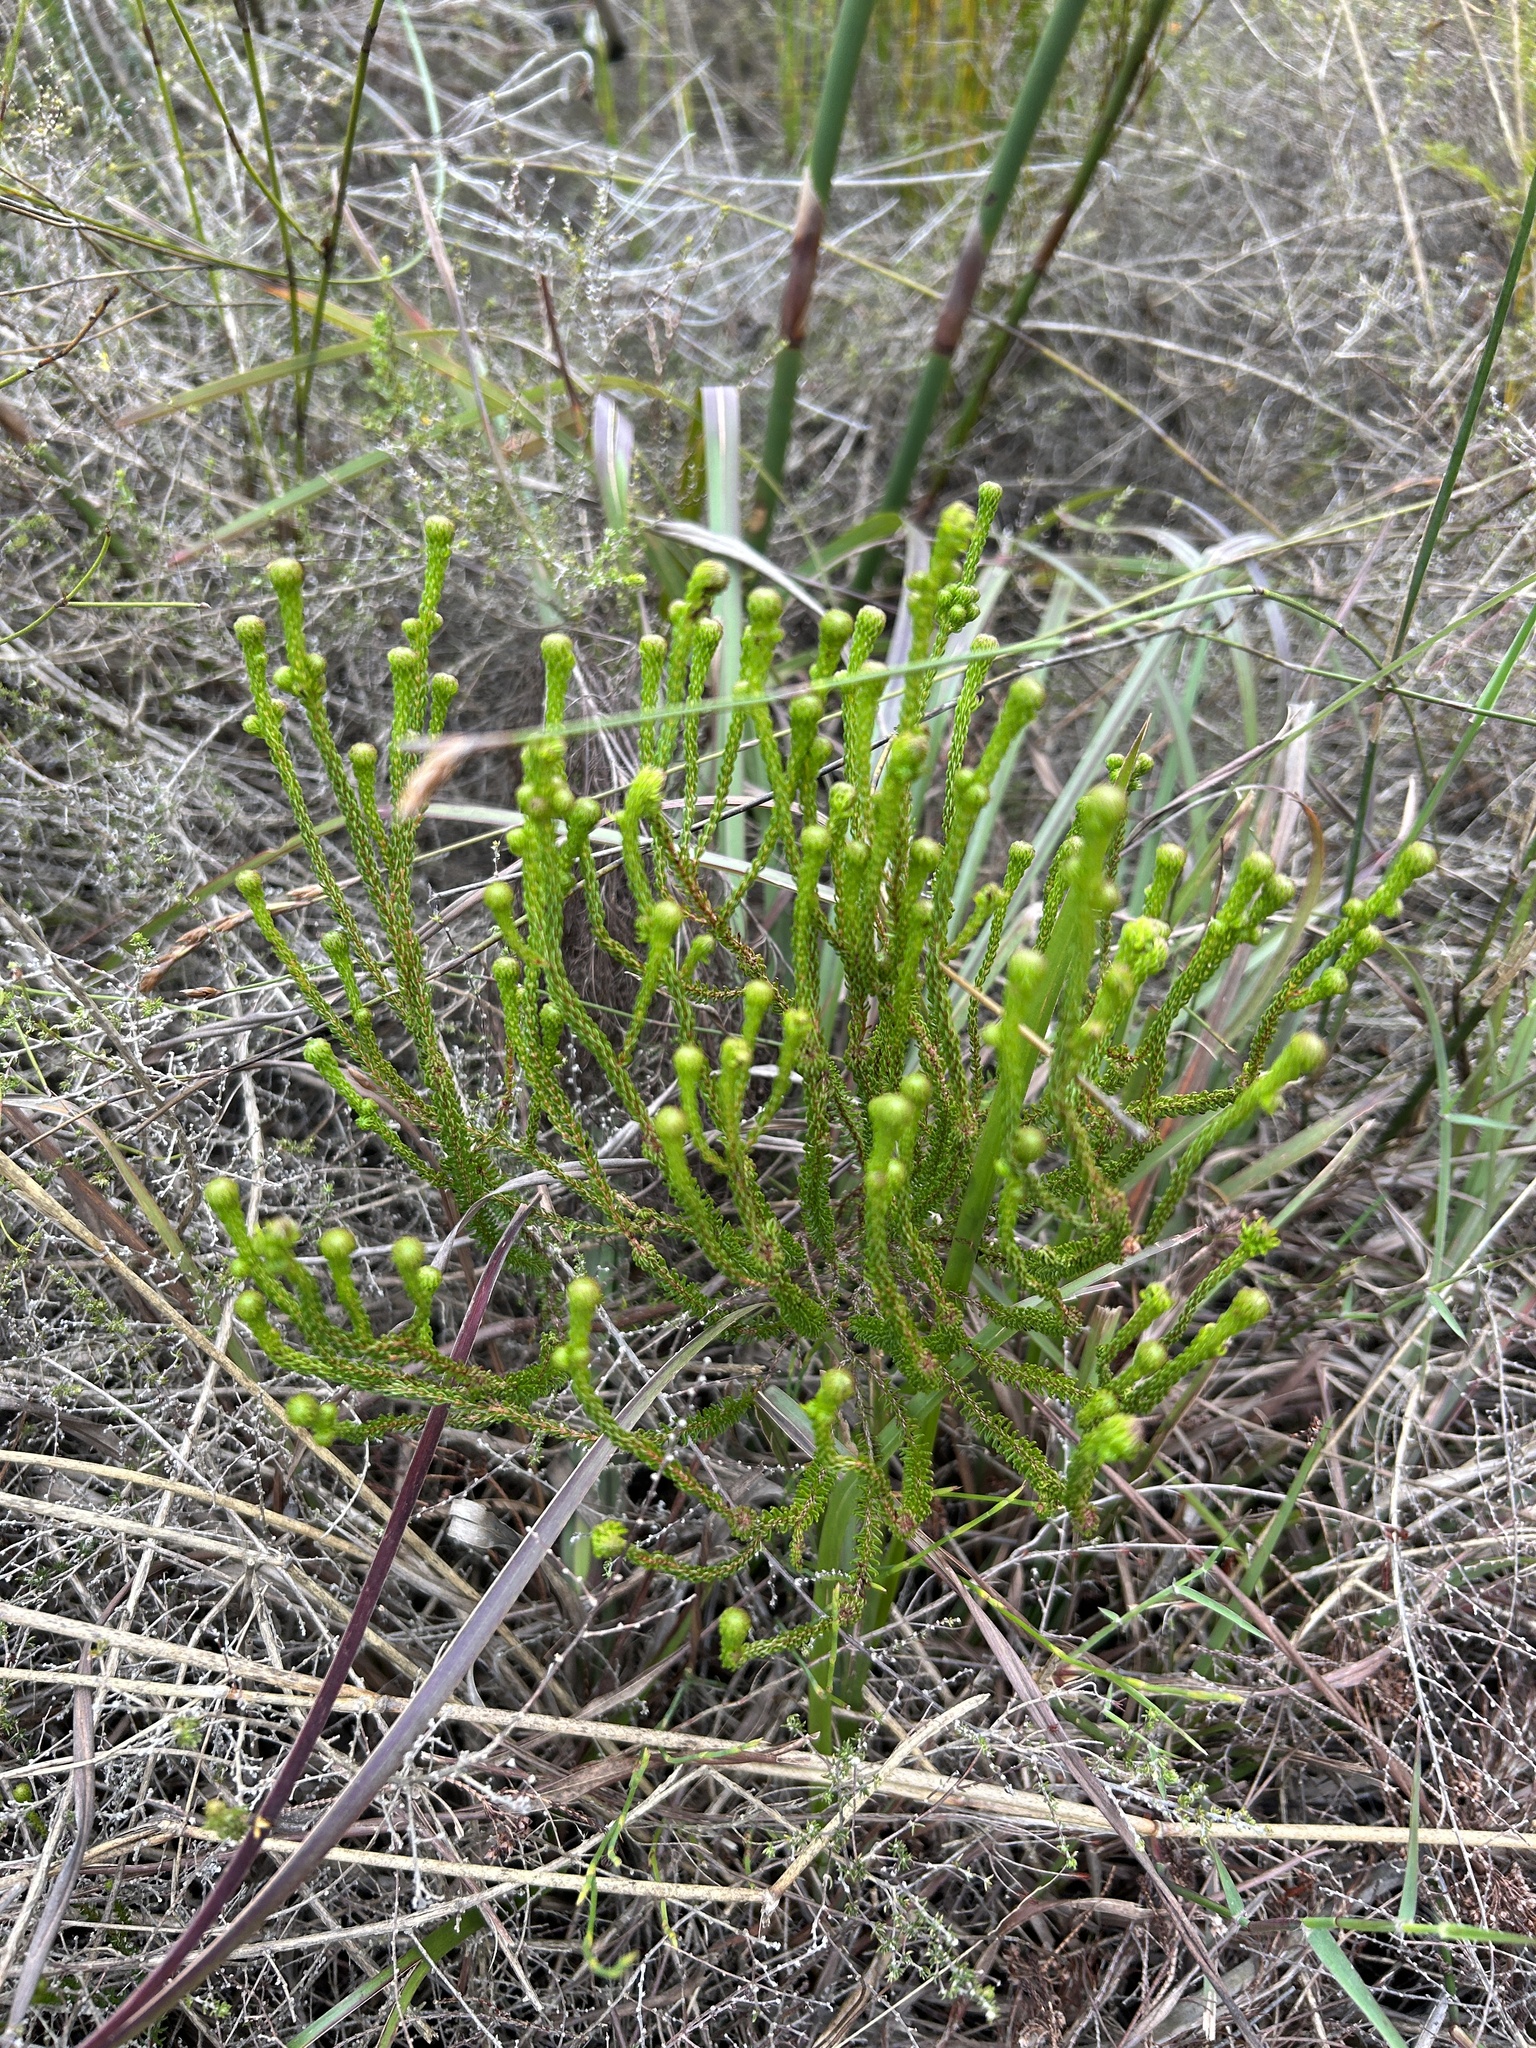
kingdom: Plantae
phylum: Tracheophyta
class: Magnoliopsida
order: Ericales
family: Ericaceae
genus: Erica
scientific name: Erica seriphiifolia
